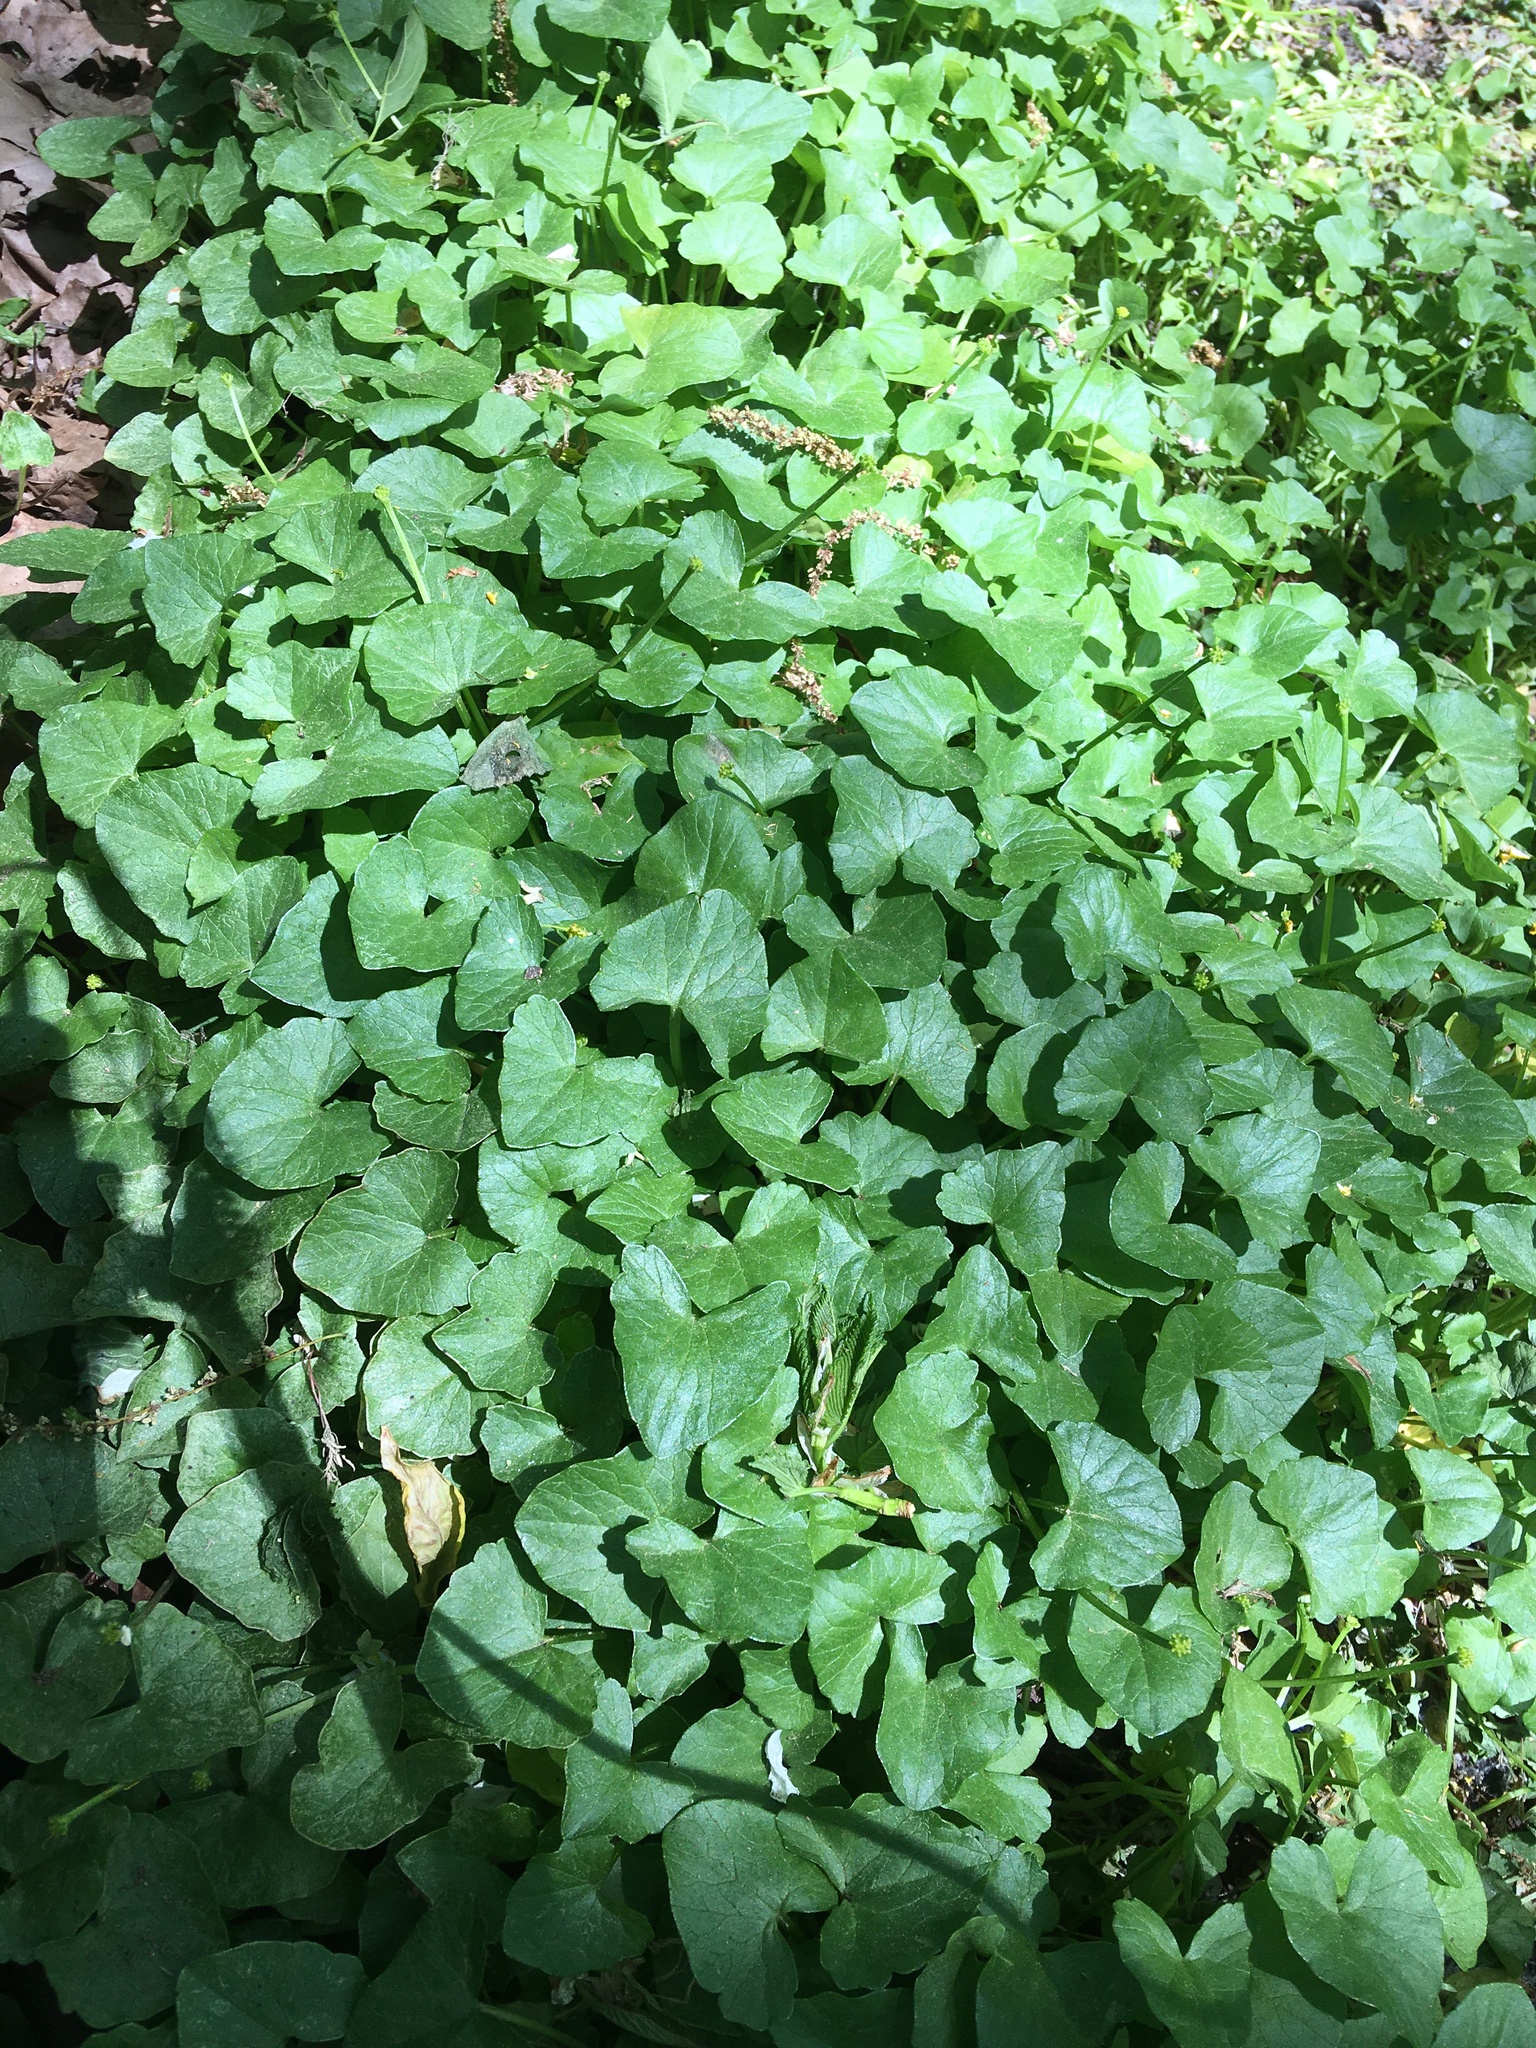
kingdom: Plantae
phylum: Tracheophyta
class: Magnoliopsida
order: Ranunculales
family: Ranunculaceae
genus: Ficaria
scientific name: Ficaria verna
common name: Lesser celandine
